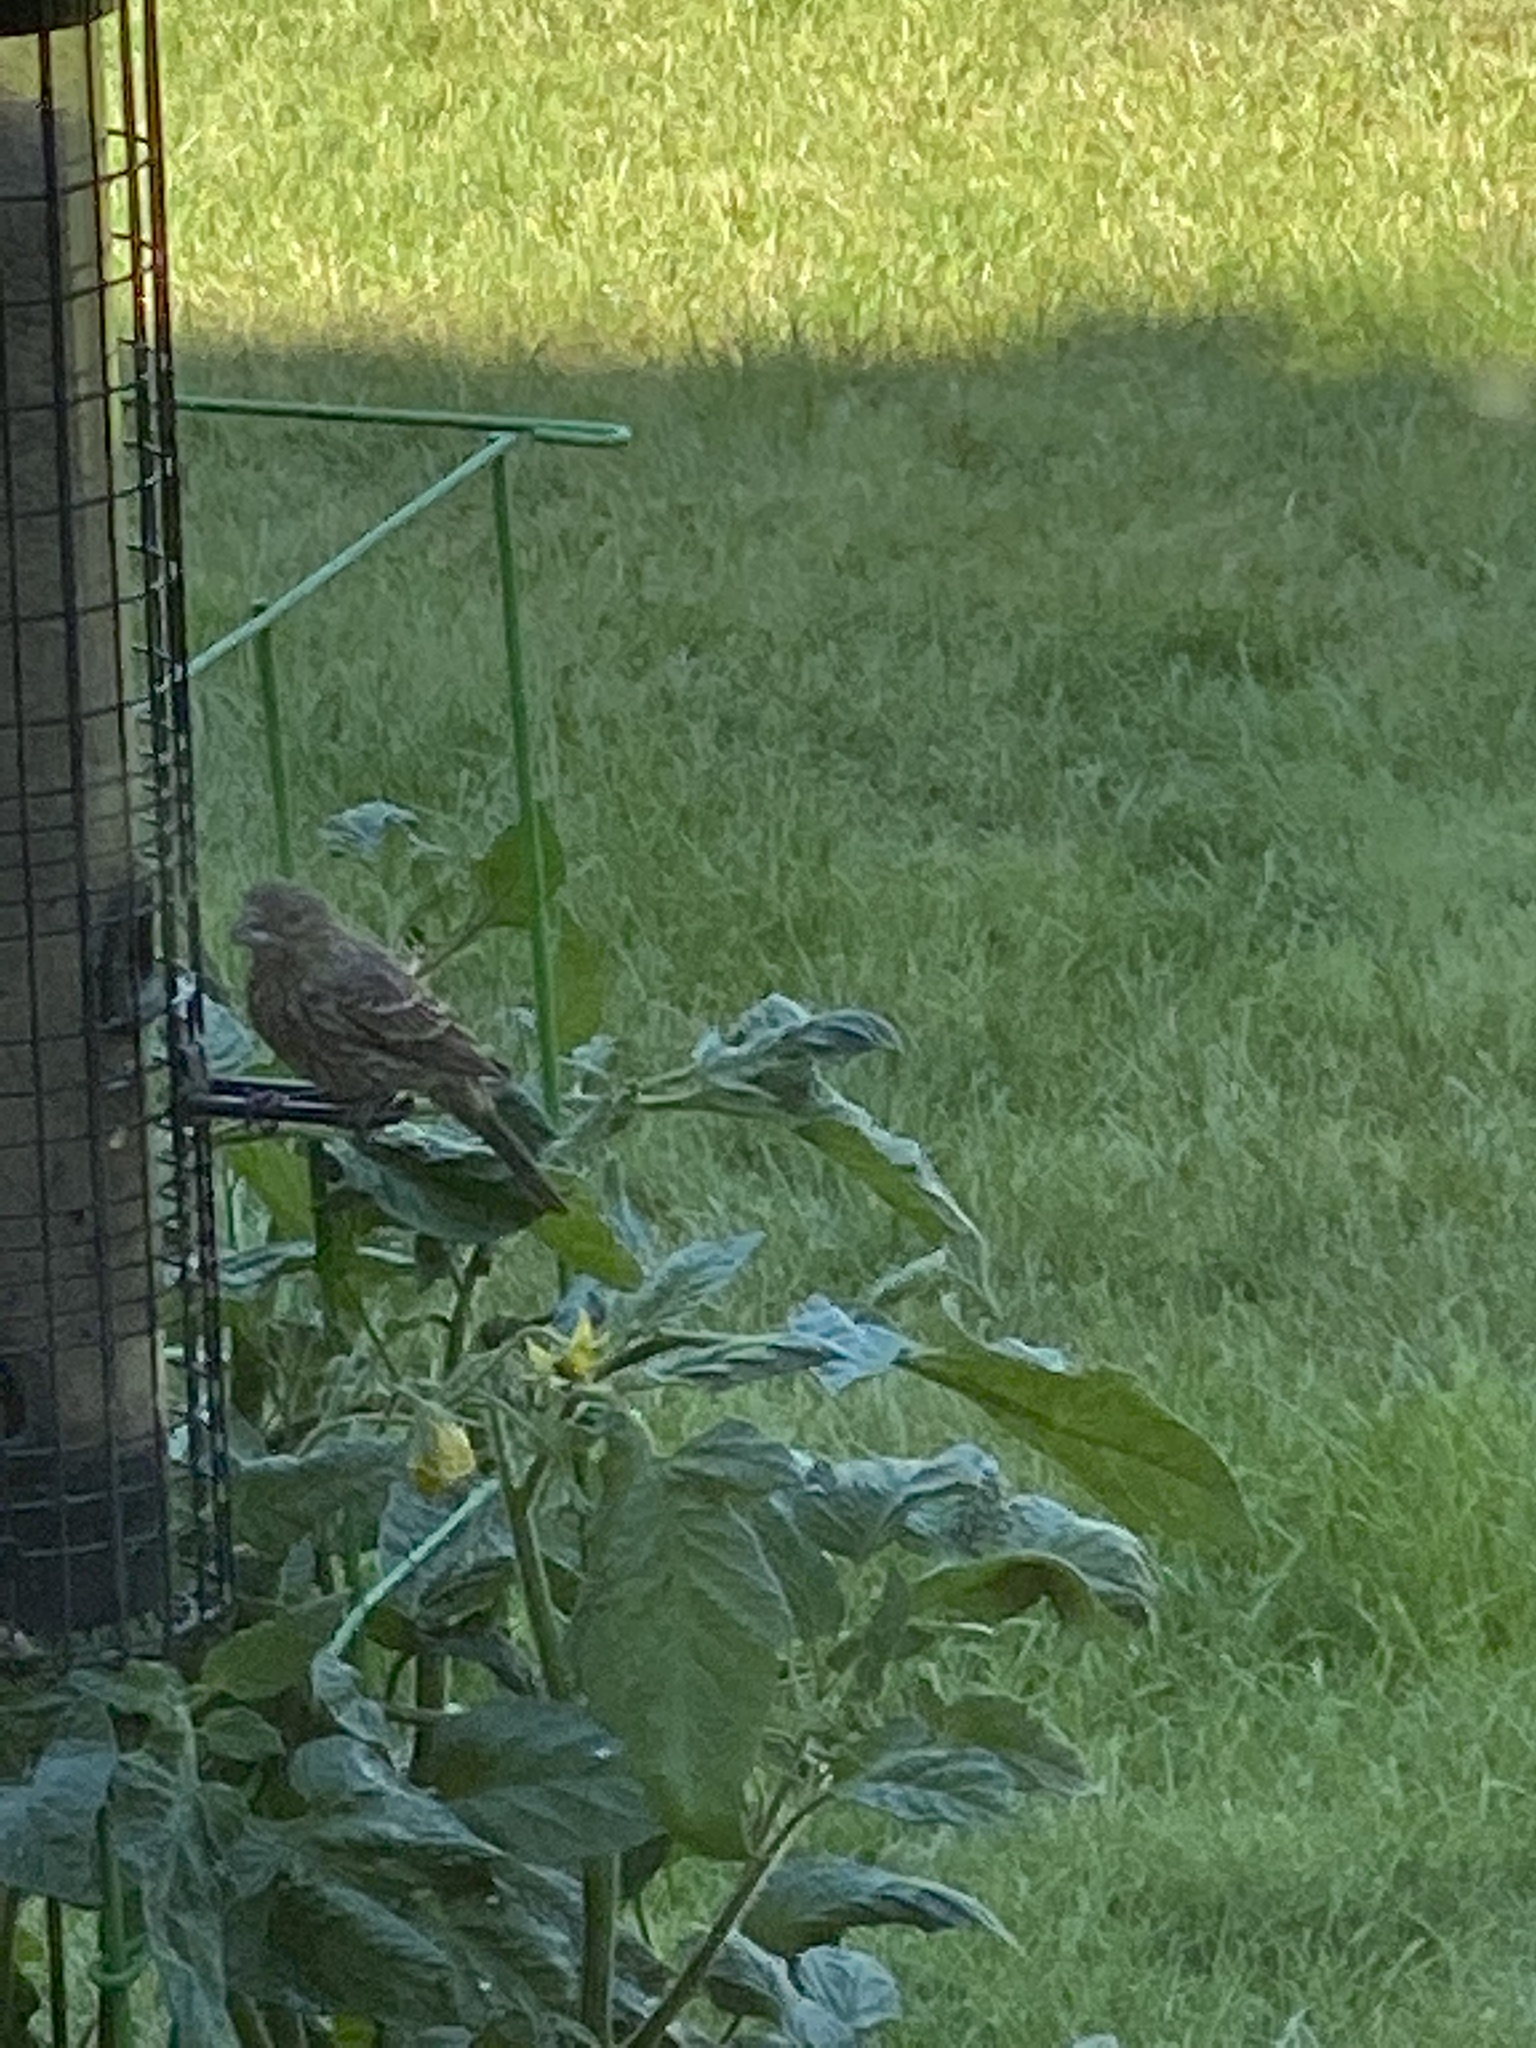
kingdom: Animalia
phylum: Chordata
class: Aves
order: Passeriformes
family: Fringillidae
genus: Haemorhous
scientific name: Haemorhous mexicanus
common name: House finch
